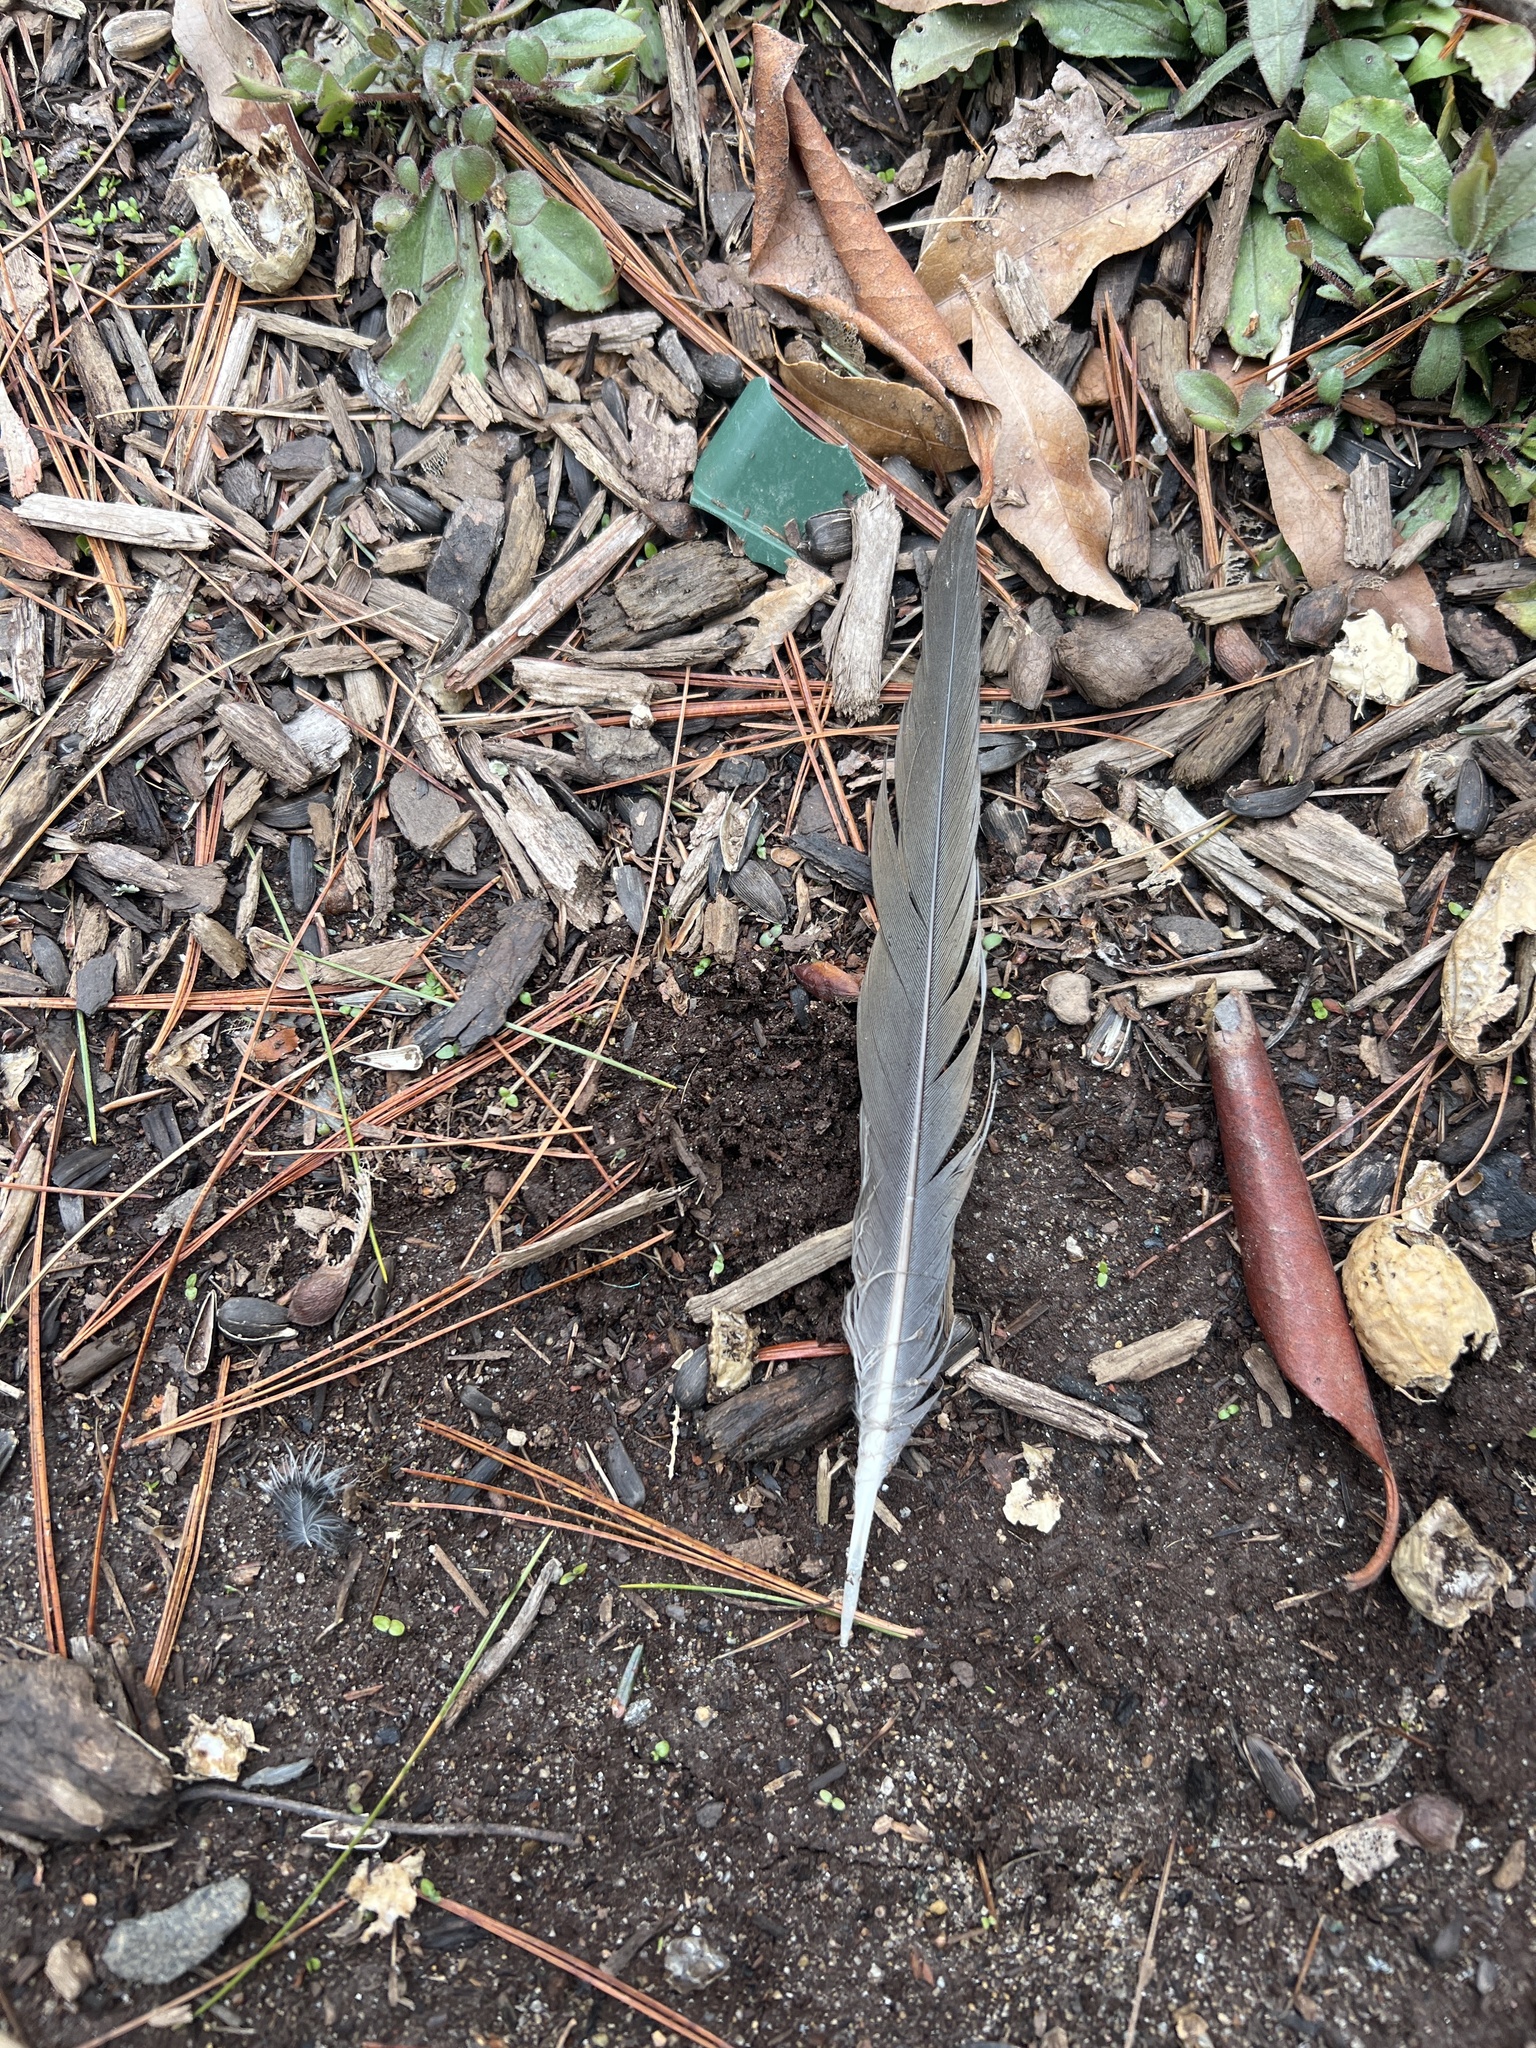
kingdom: Animalia
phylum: Chordata
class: Aves
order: Columbiformes
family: Columbidae
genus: Zenaida
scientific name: Zenaida macroura
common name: Mourning dove
